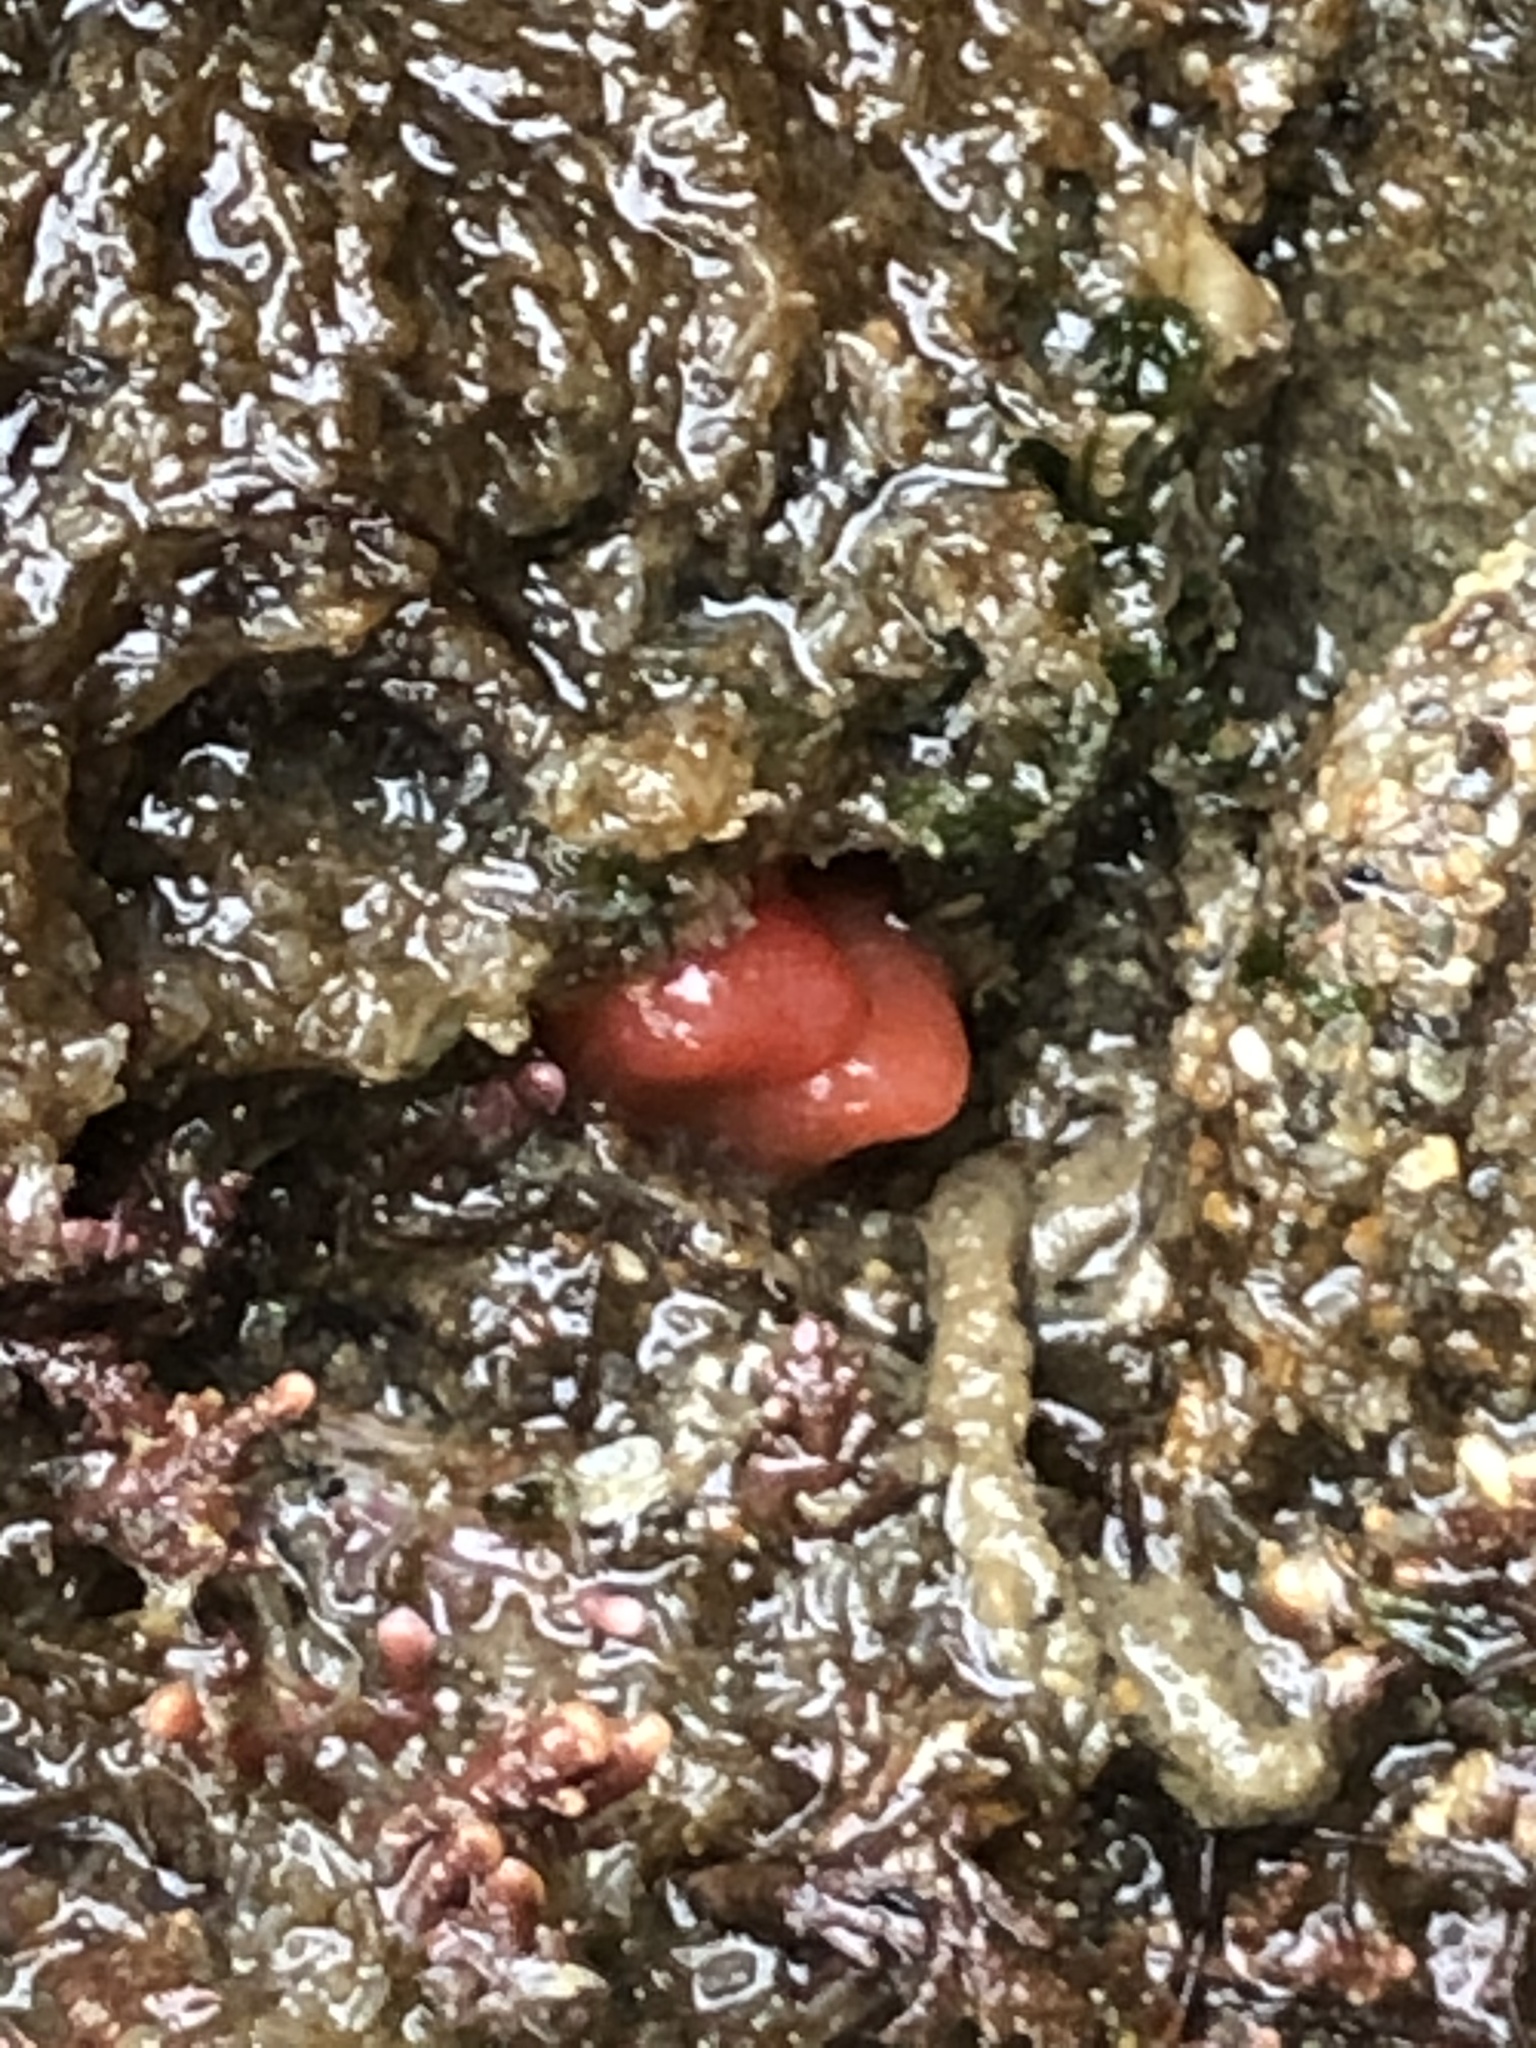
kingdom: Animalia
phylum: Mollusca
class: Bivalvia
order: Adapedonta
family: Hiatellidae
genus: Hiatella
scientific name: Hiatella arctica
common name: Arctic hiatella
